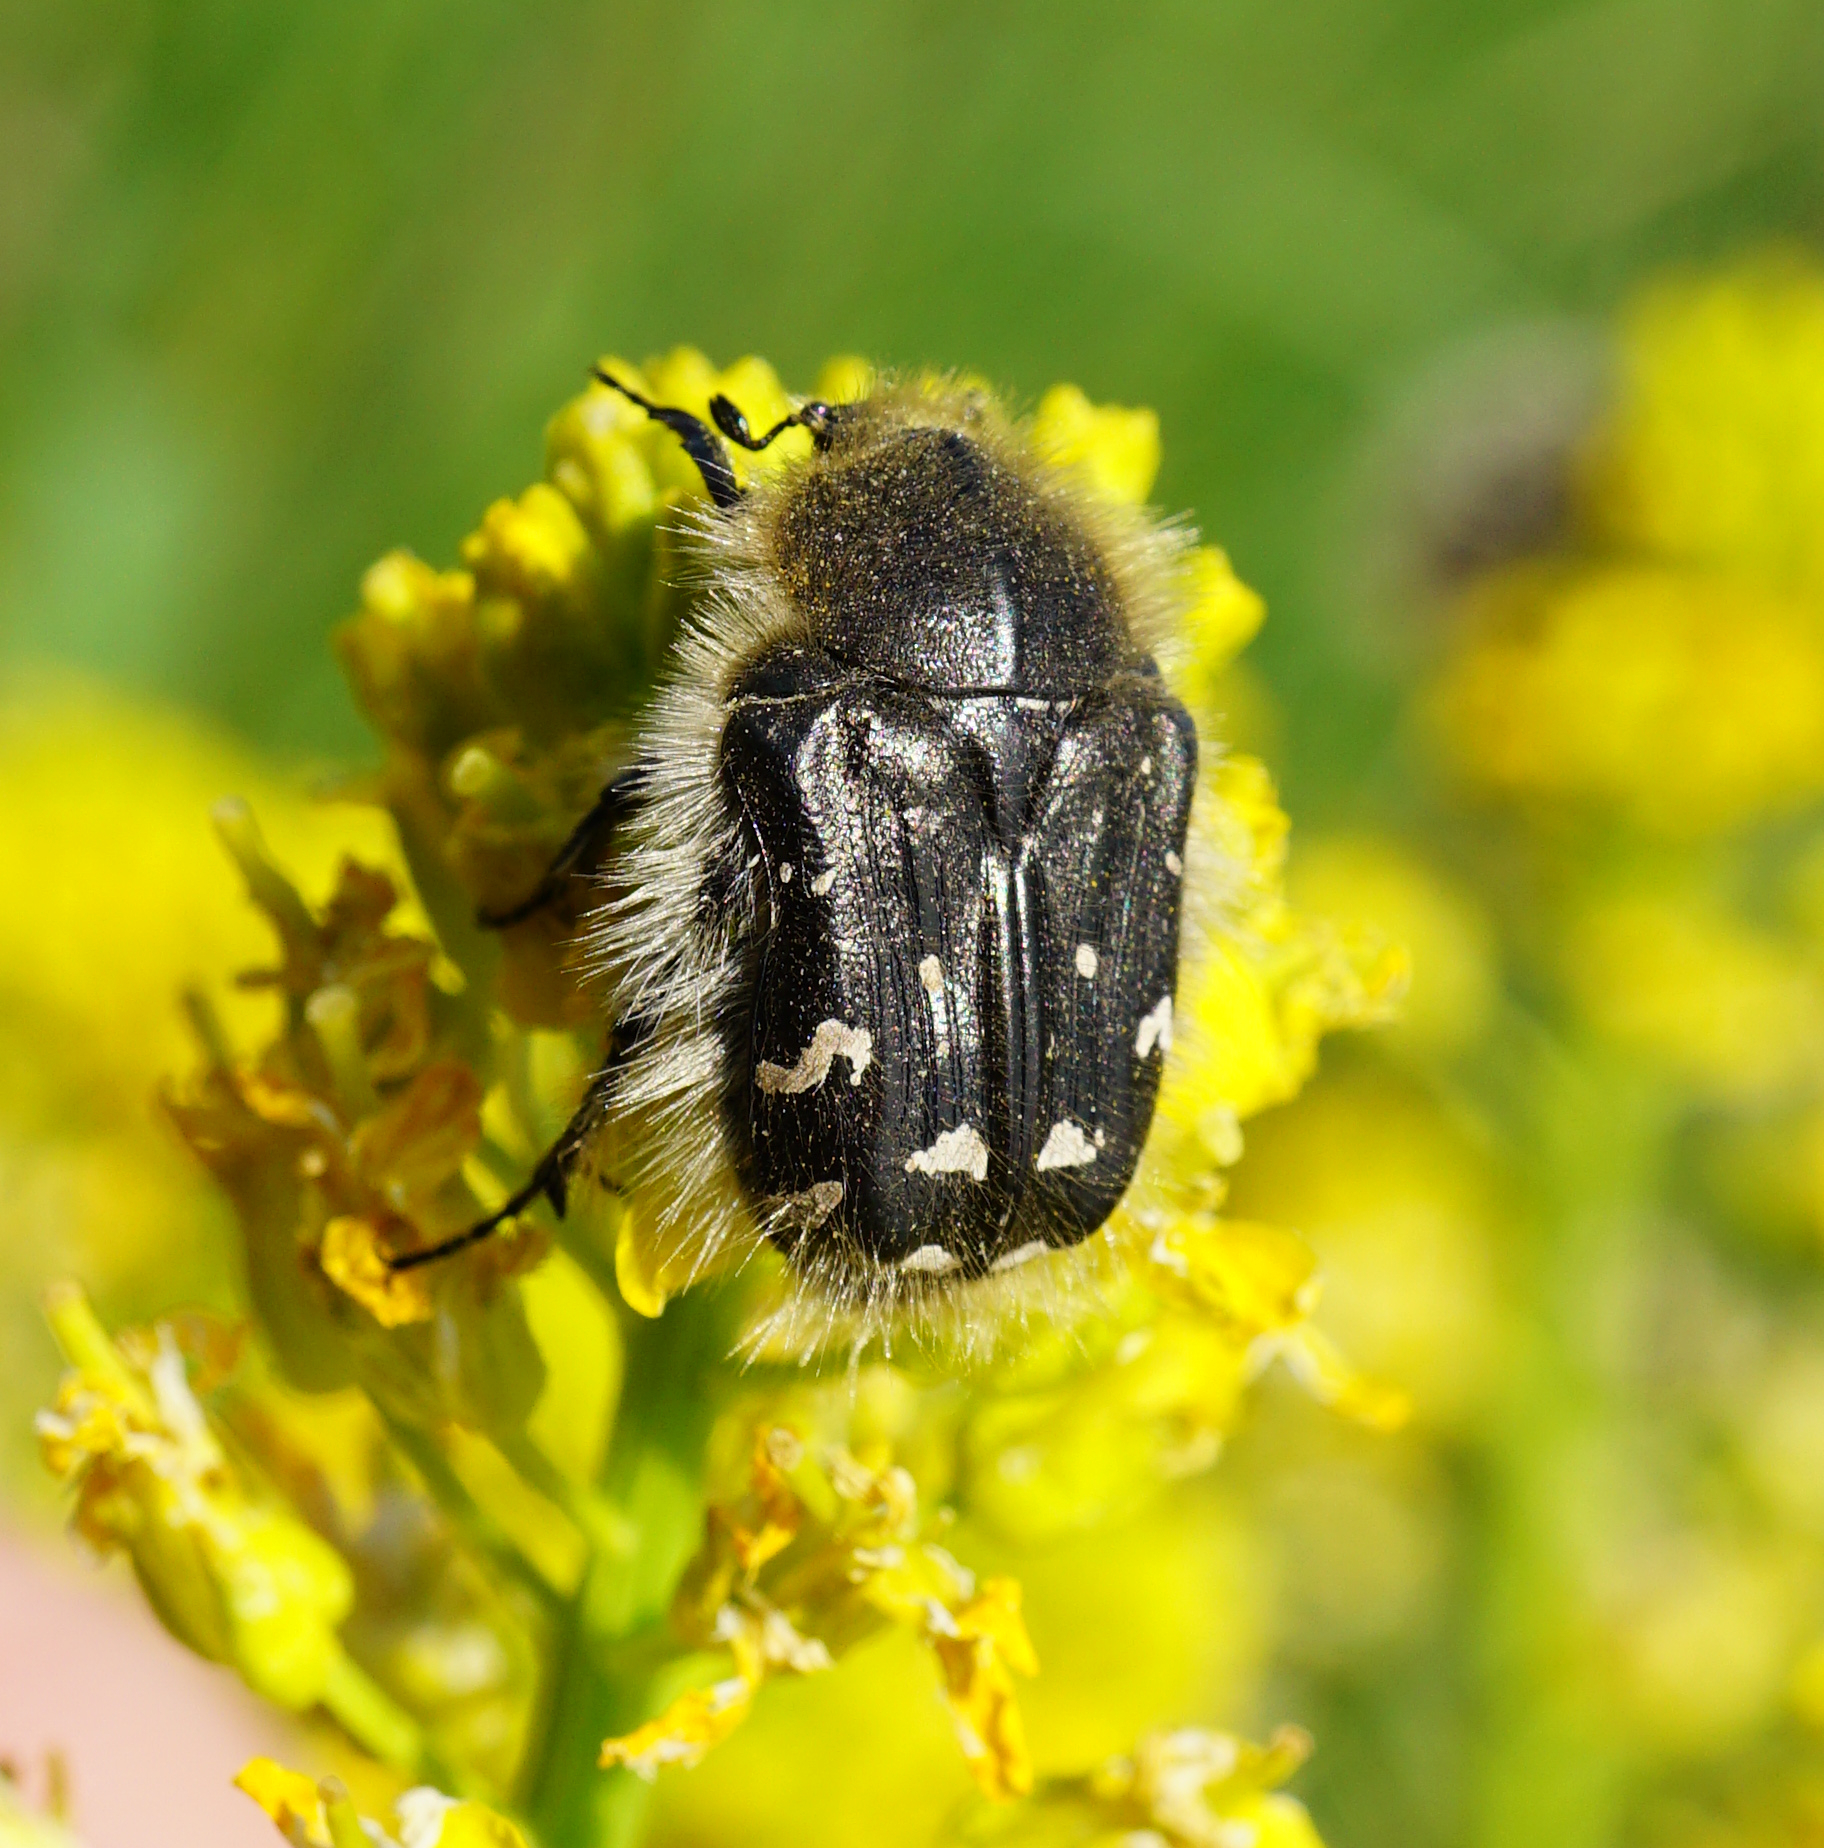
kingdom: Animalia
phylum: Arthropoda
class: Insecta
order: Coleoptera
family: Scarabaeidae
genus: Tropinota
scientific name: Tropinota hirta
